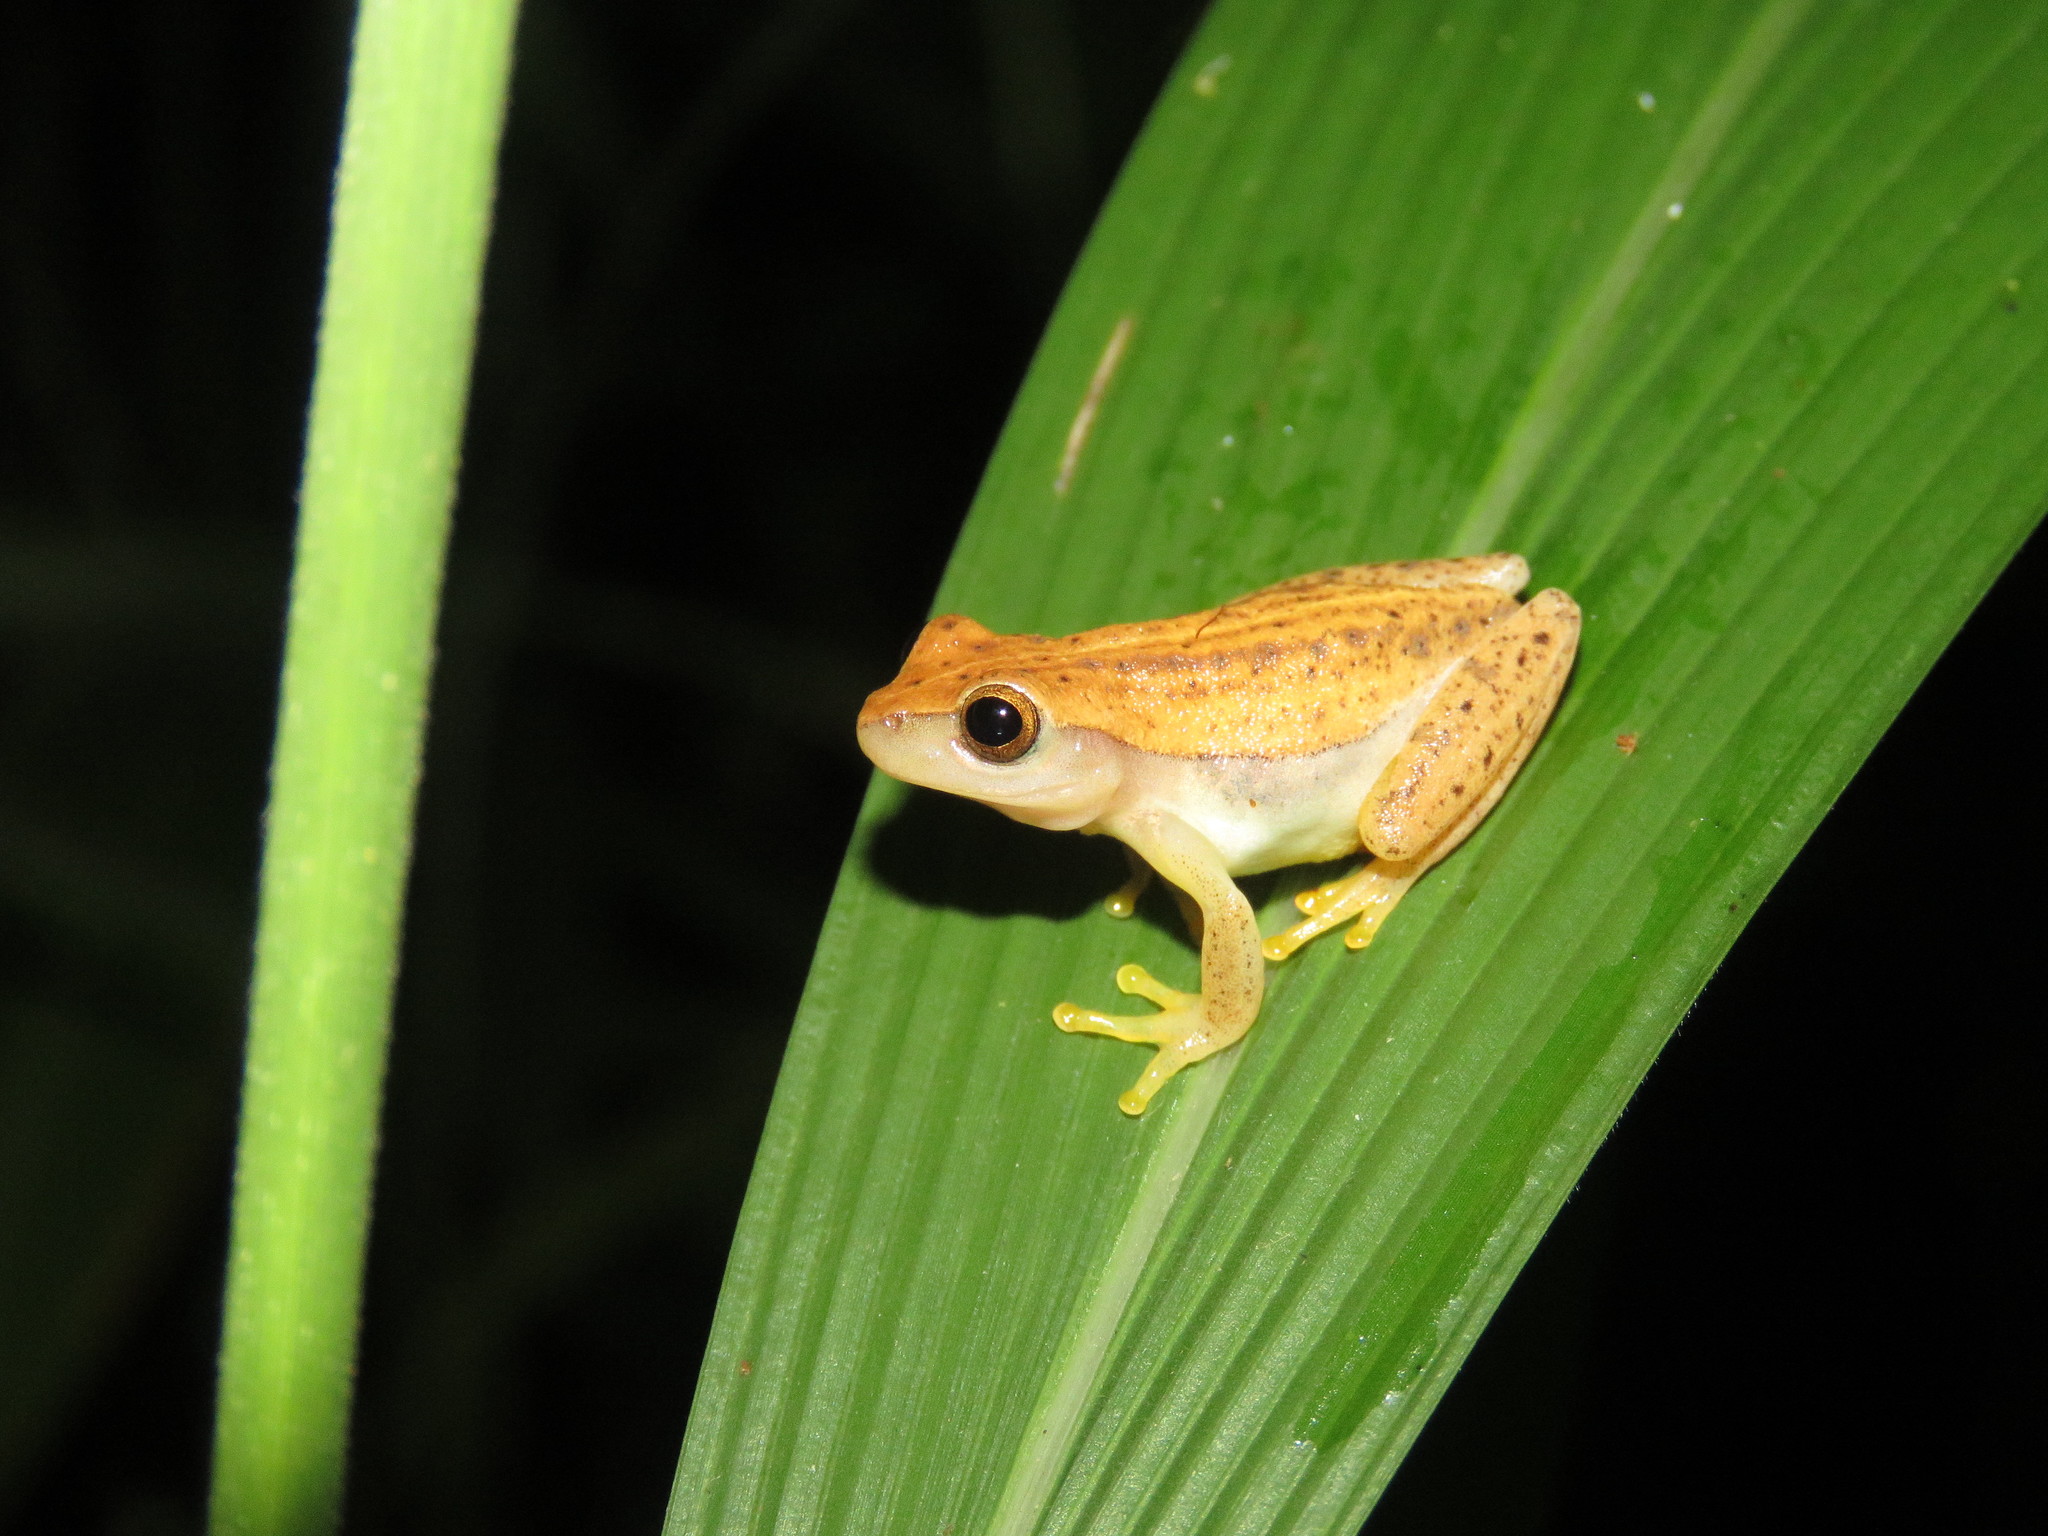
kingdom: Animalia
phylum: Chordata
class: Amphibia
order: Anura
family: Hylidae
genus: Dendropsophus
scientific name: Dendropsophus walfordi
